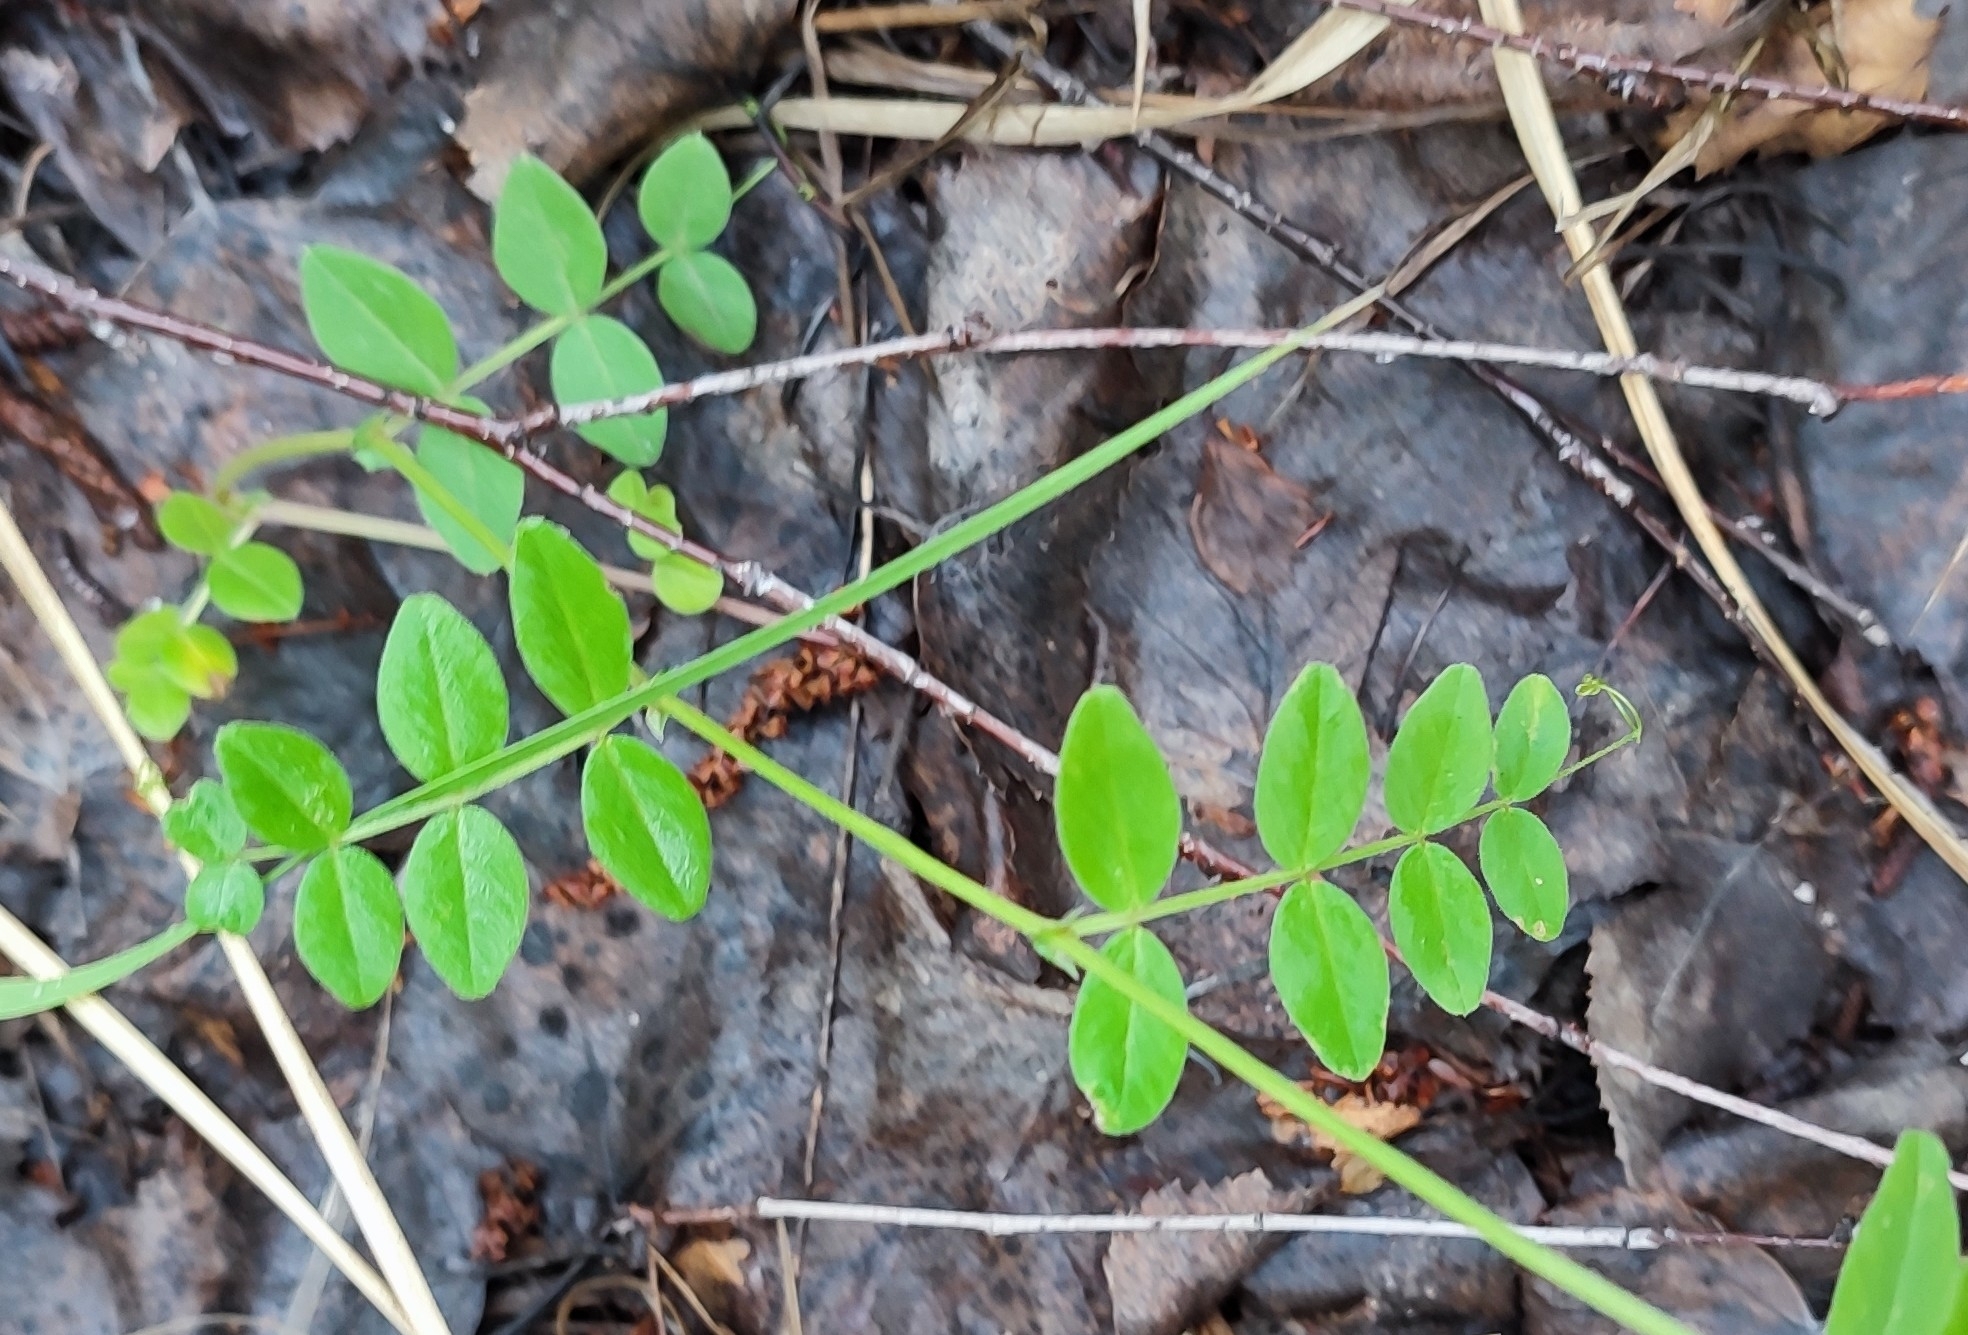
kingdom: Plantae
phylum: Tracheophyta
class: Magnoliopsida
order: Fabales
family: Fabaceae
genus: Vicia
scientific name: Vicia sepium
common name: Bush vetch
